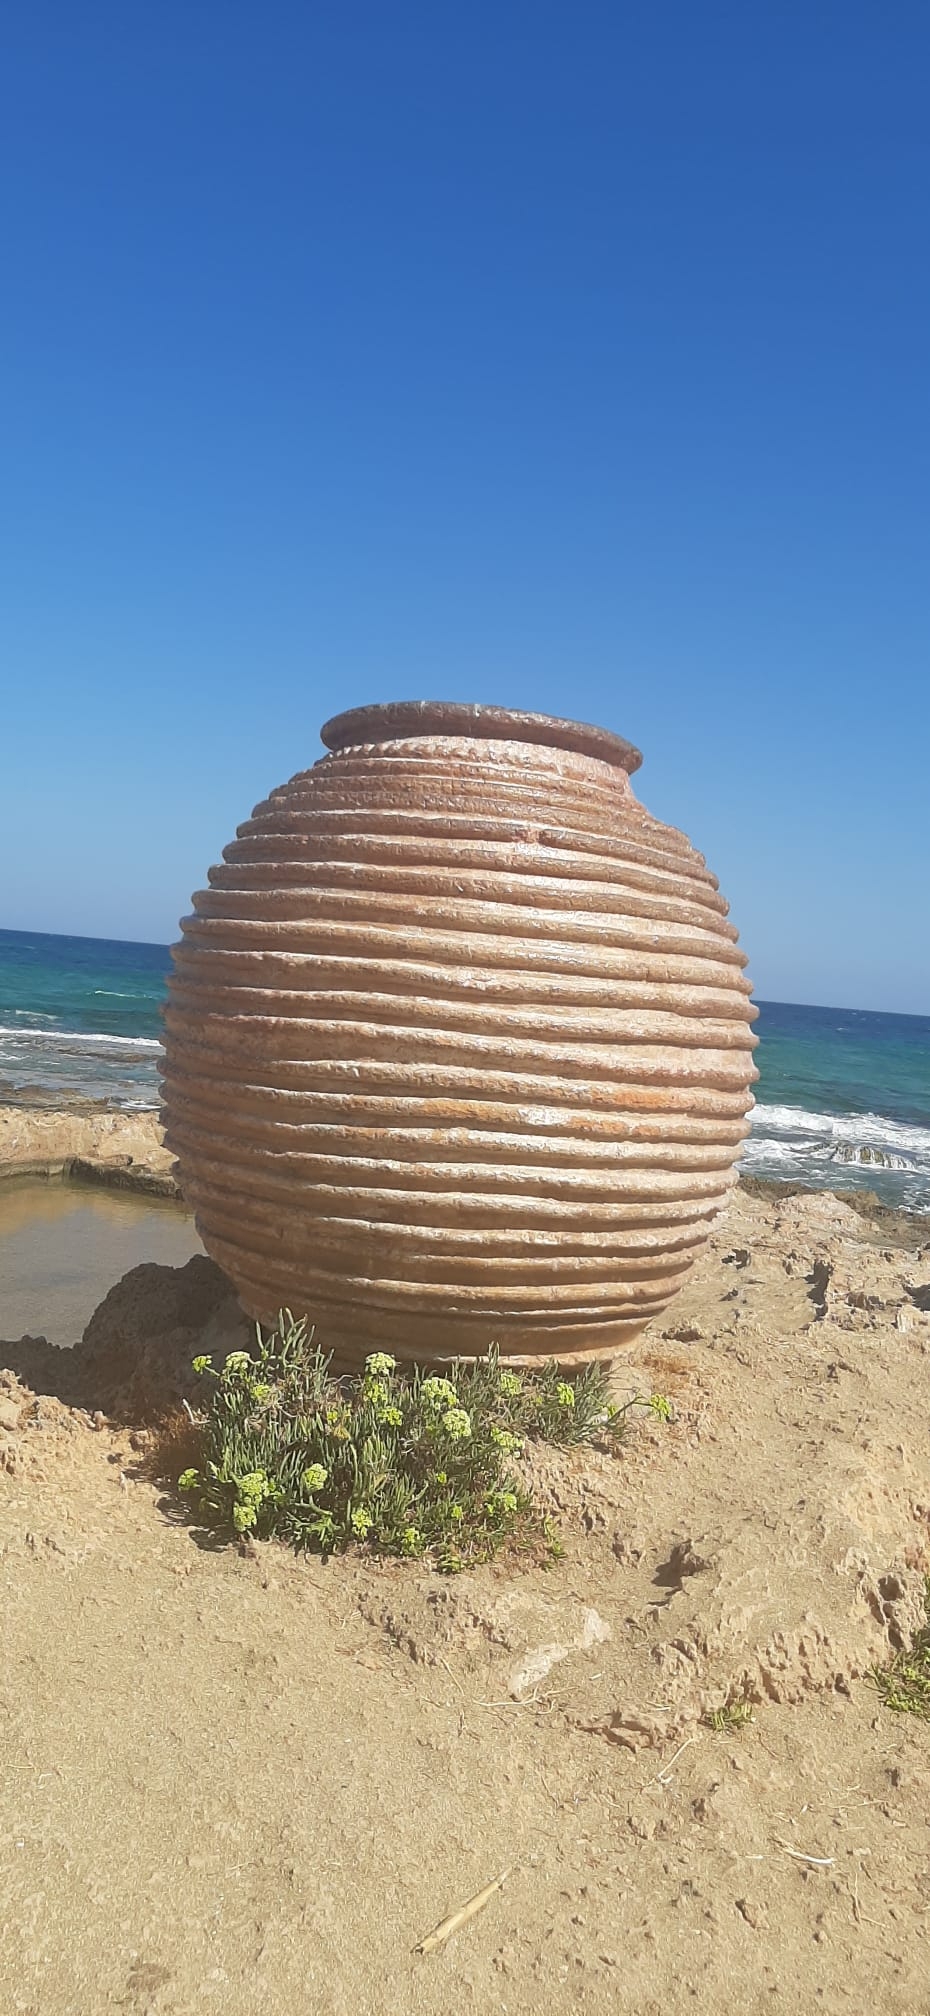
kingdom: Plantae
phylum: Tracheophyta
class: Magnoliopsida
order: Apiales
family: Apiaceae
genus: Crithmum
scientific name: Crithmum maritimum
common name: Rock samphire
